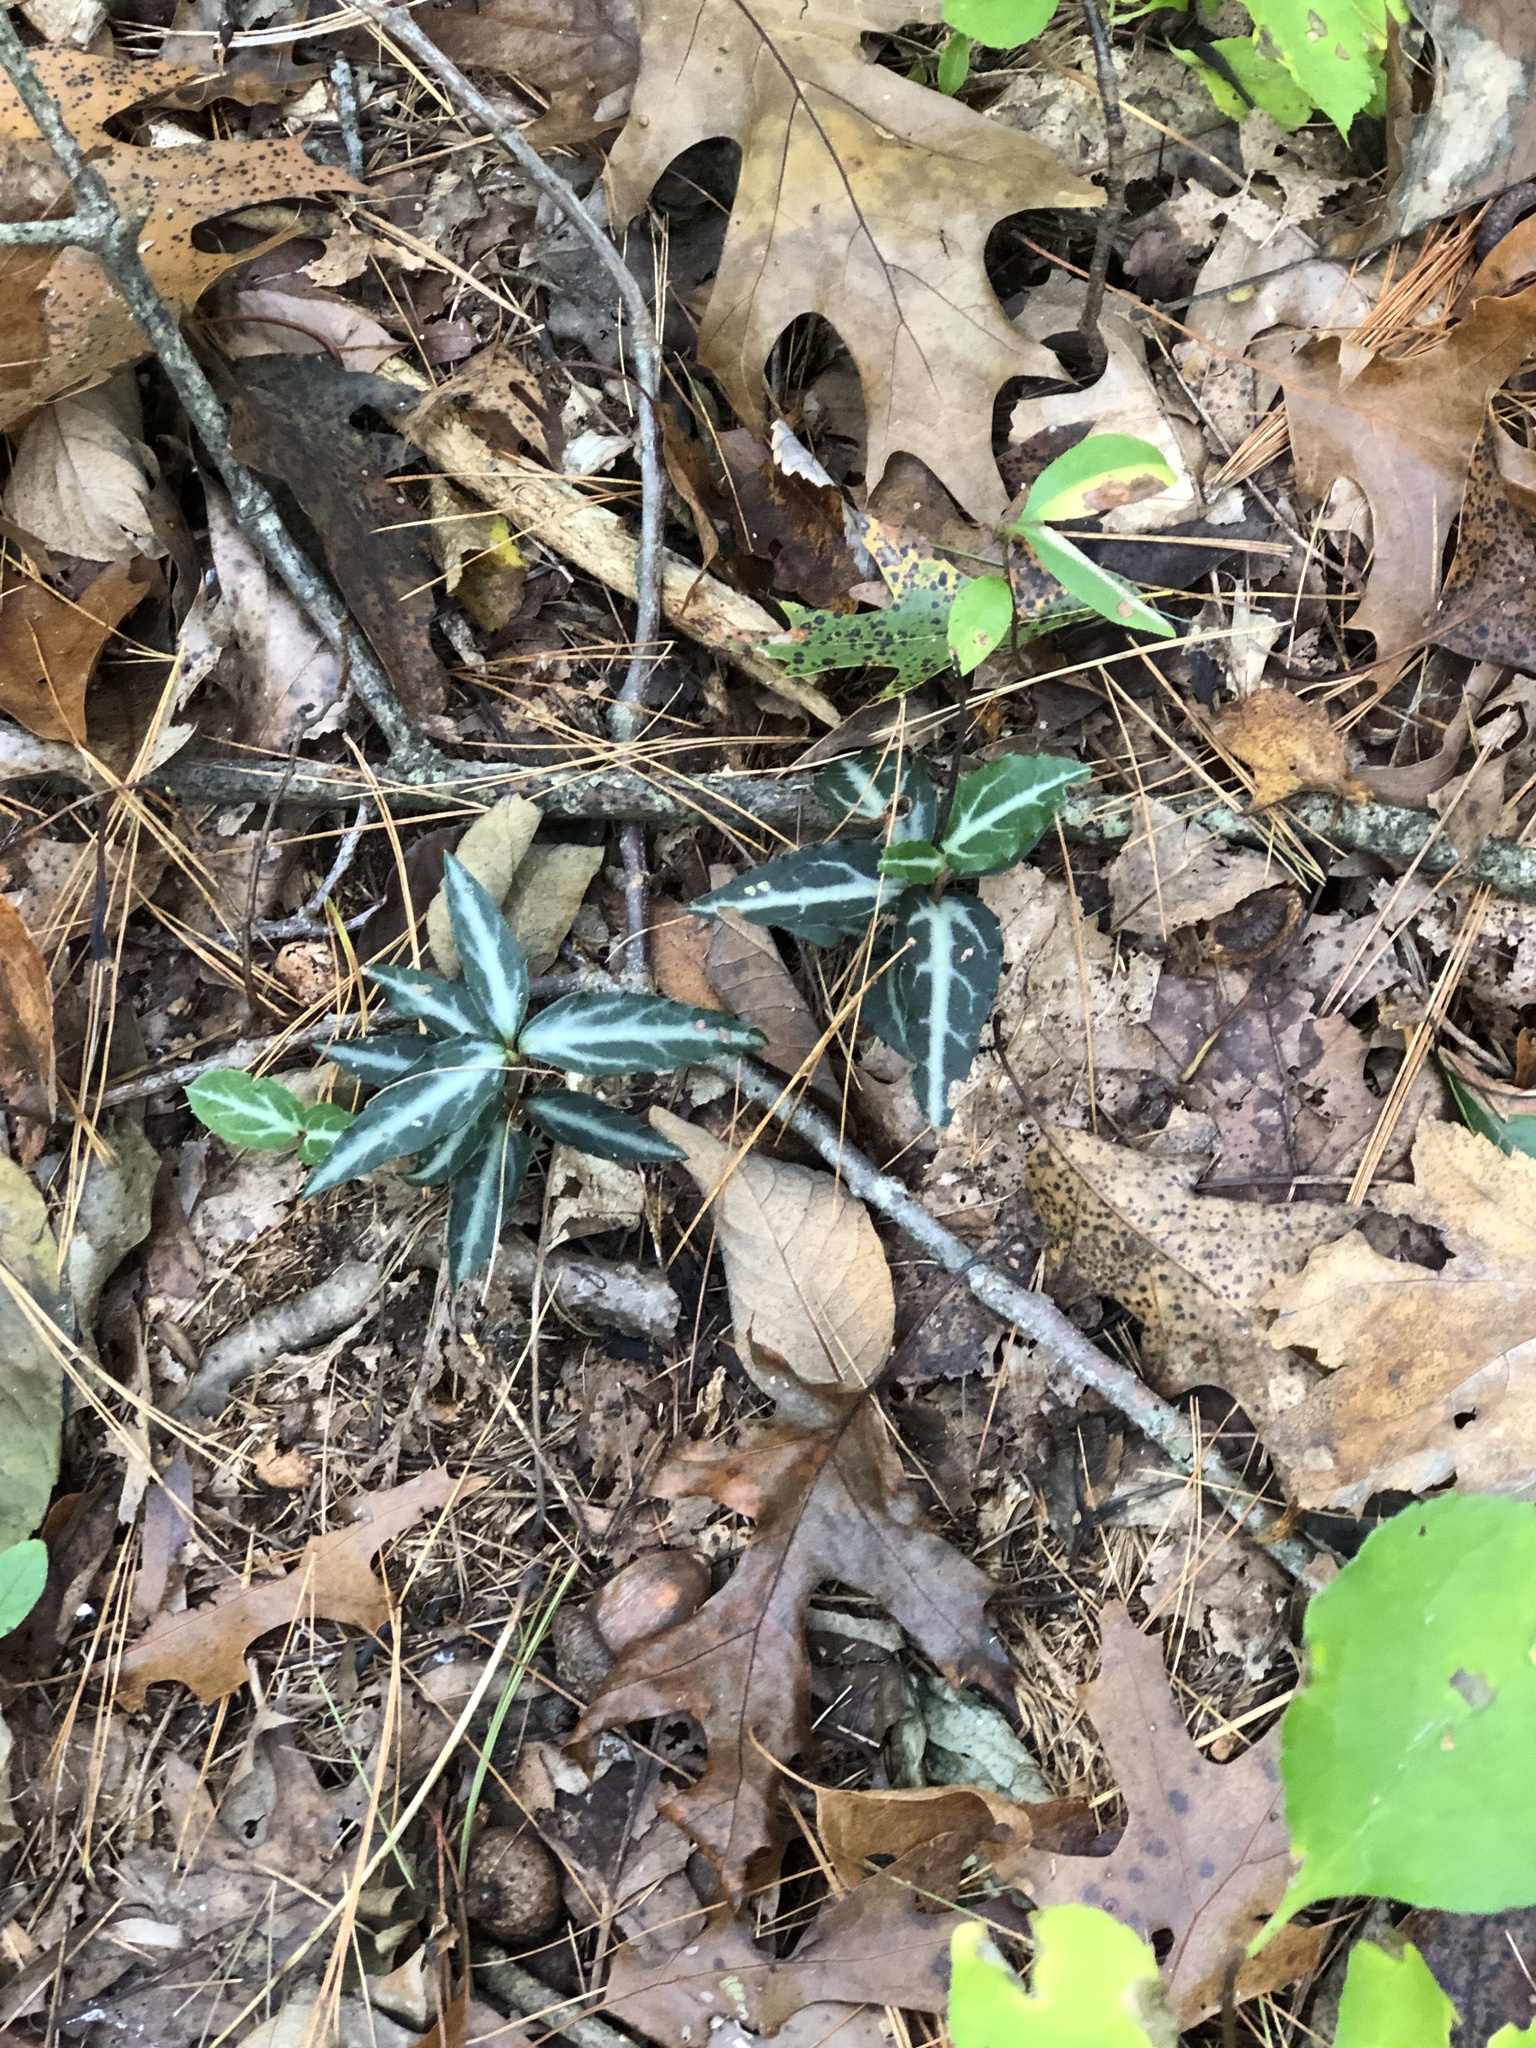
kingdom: Plantae
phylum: Tracheophyta
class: Magnoliopsida
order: Ericales
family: Ericaceae
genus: Chimaphila
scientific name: Chimaphila maculata
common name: Spotted pipsissewa
